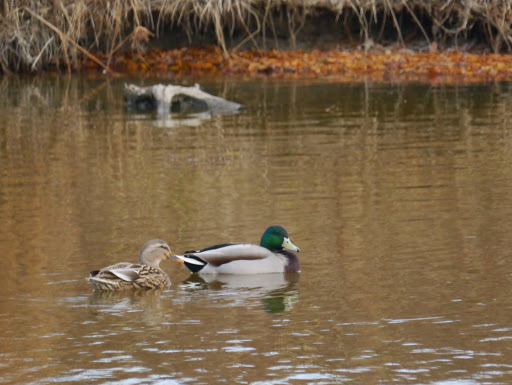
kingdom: Animalia
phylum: Chordata
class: Aves
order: Anseriformes
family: Anatidae
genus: Anas
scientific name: Anas platyrhynchos
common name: Mallard
